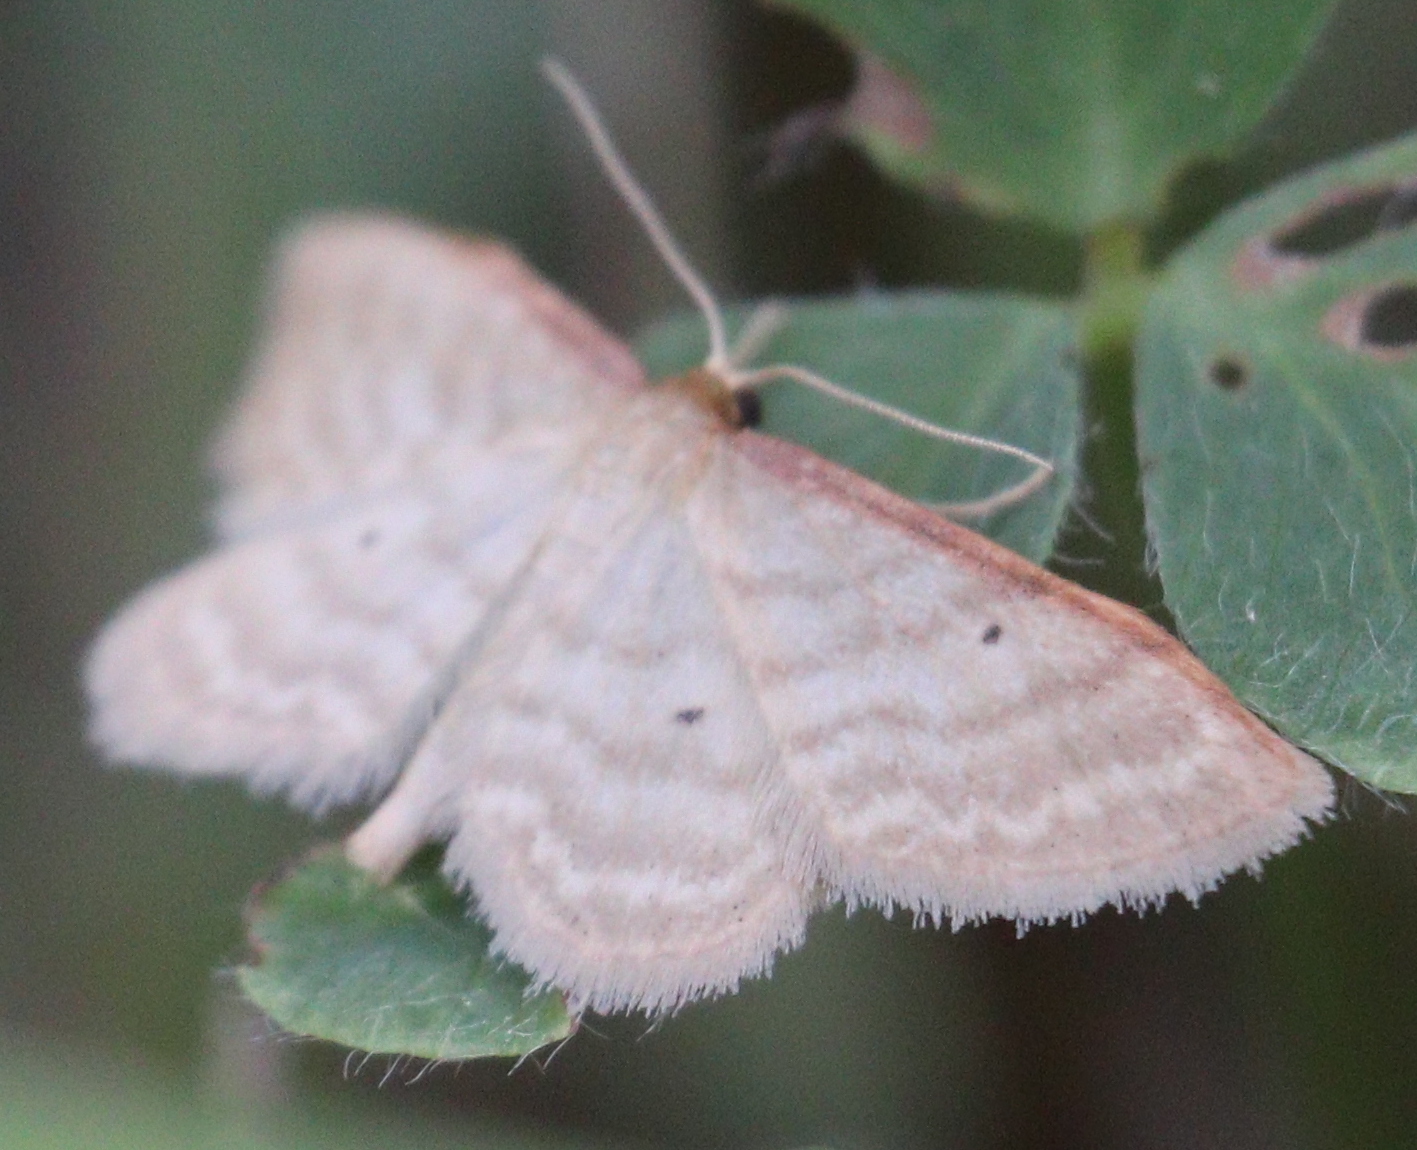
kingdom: Animalia
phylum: Arthropoda
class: Insecta
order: Lepidoptera
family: Geometridae
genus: Idaea
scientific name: Idaea humiliata
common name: Isle of wight wave
